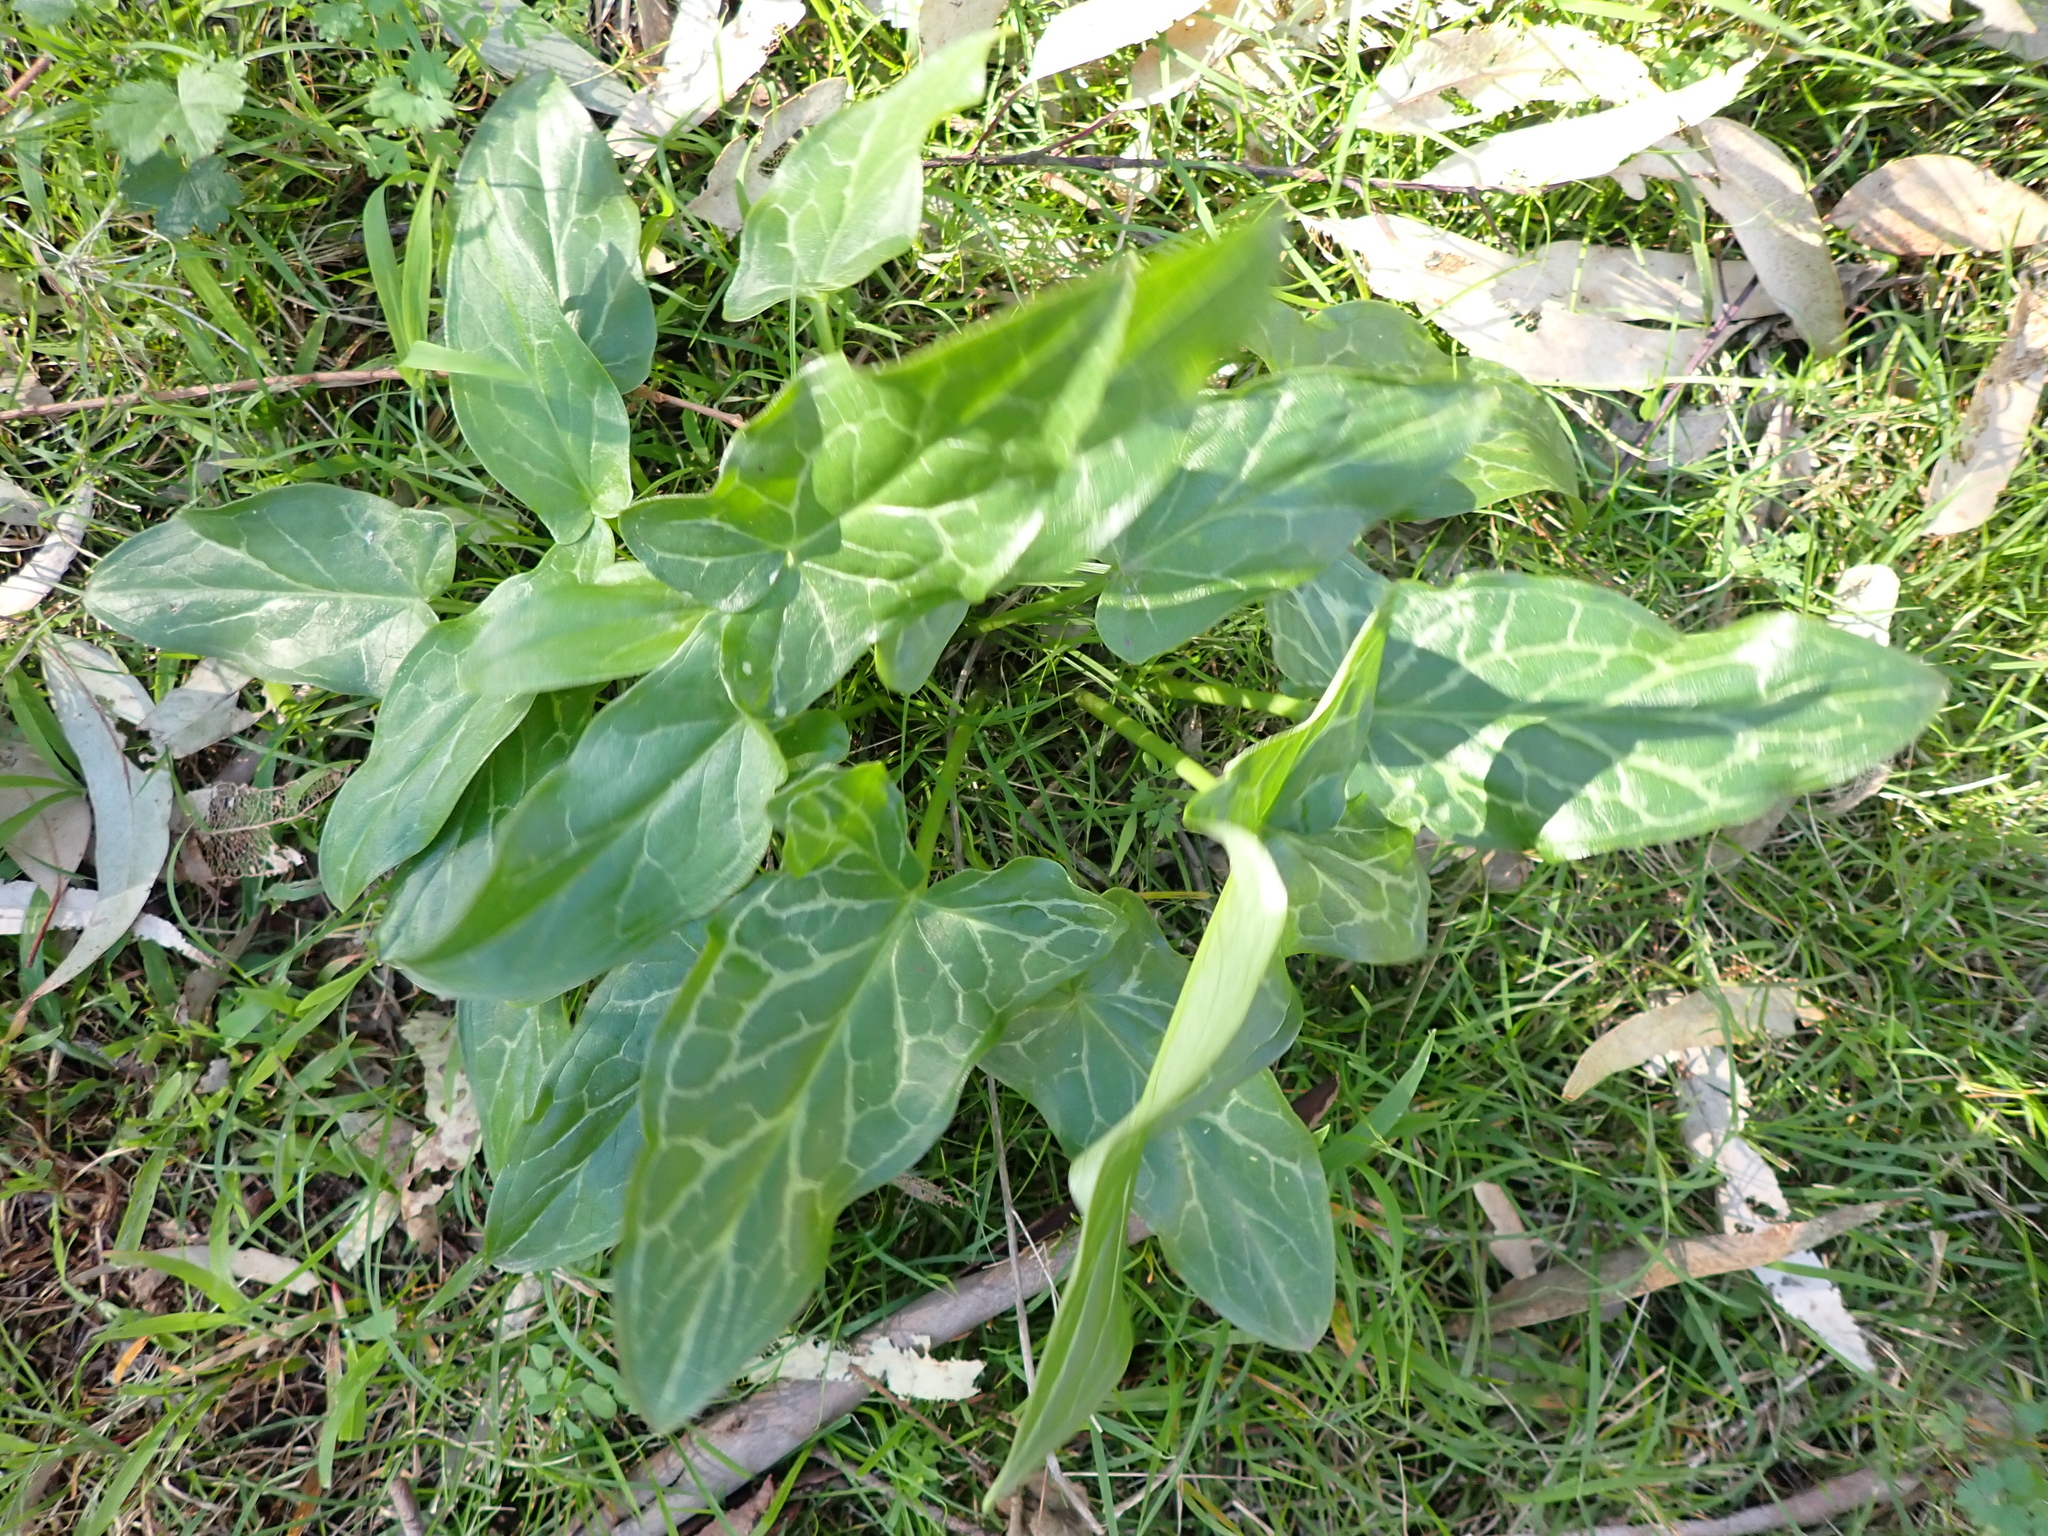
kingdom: Plantae
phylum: Tracheophyta
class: Liliopsida
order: Alismatales
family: Araceae
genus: Arum
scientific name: Arum italicum
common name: Italian lords-and-ladies
